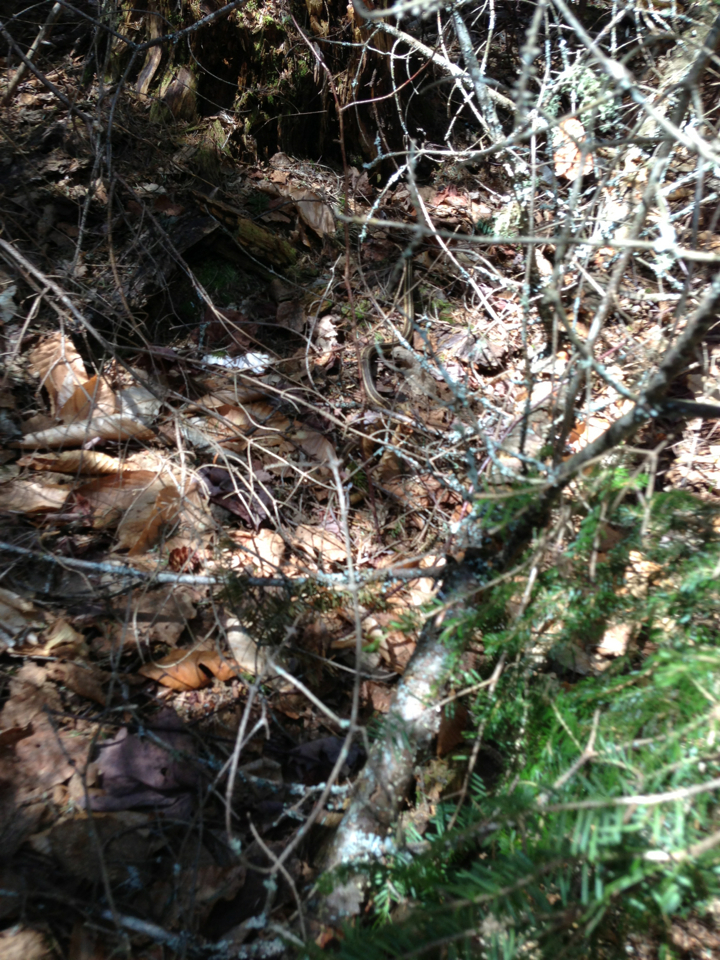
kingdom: Animalia
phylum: Chordata
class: Squamata
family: Colubridae
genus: Thamnophis
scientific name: Thamnophis sirtalis
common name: Common garter snake
